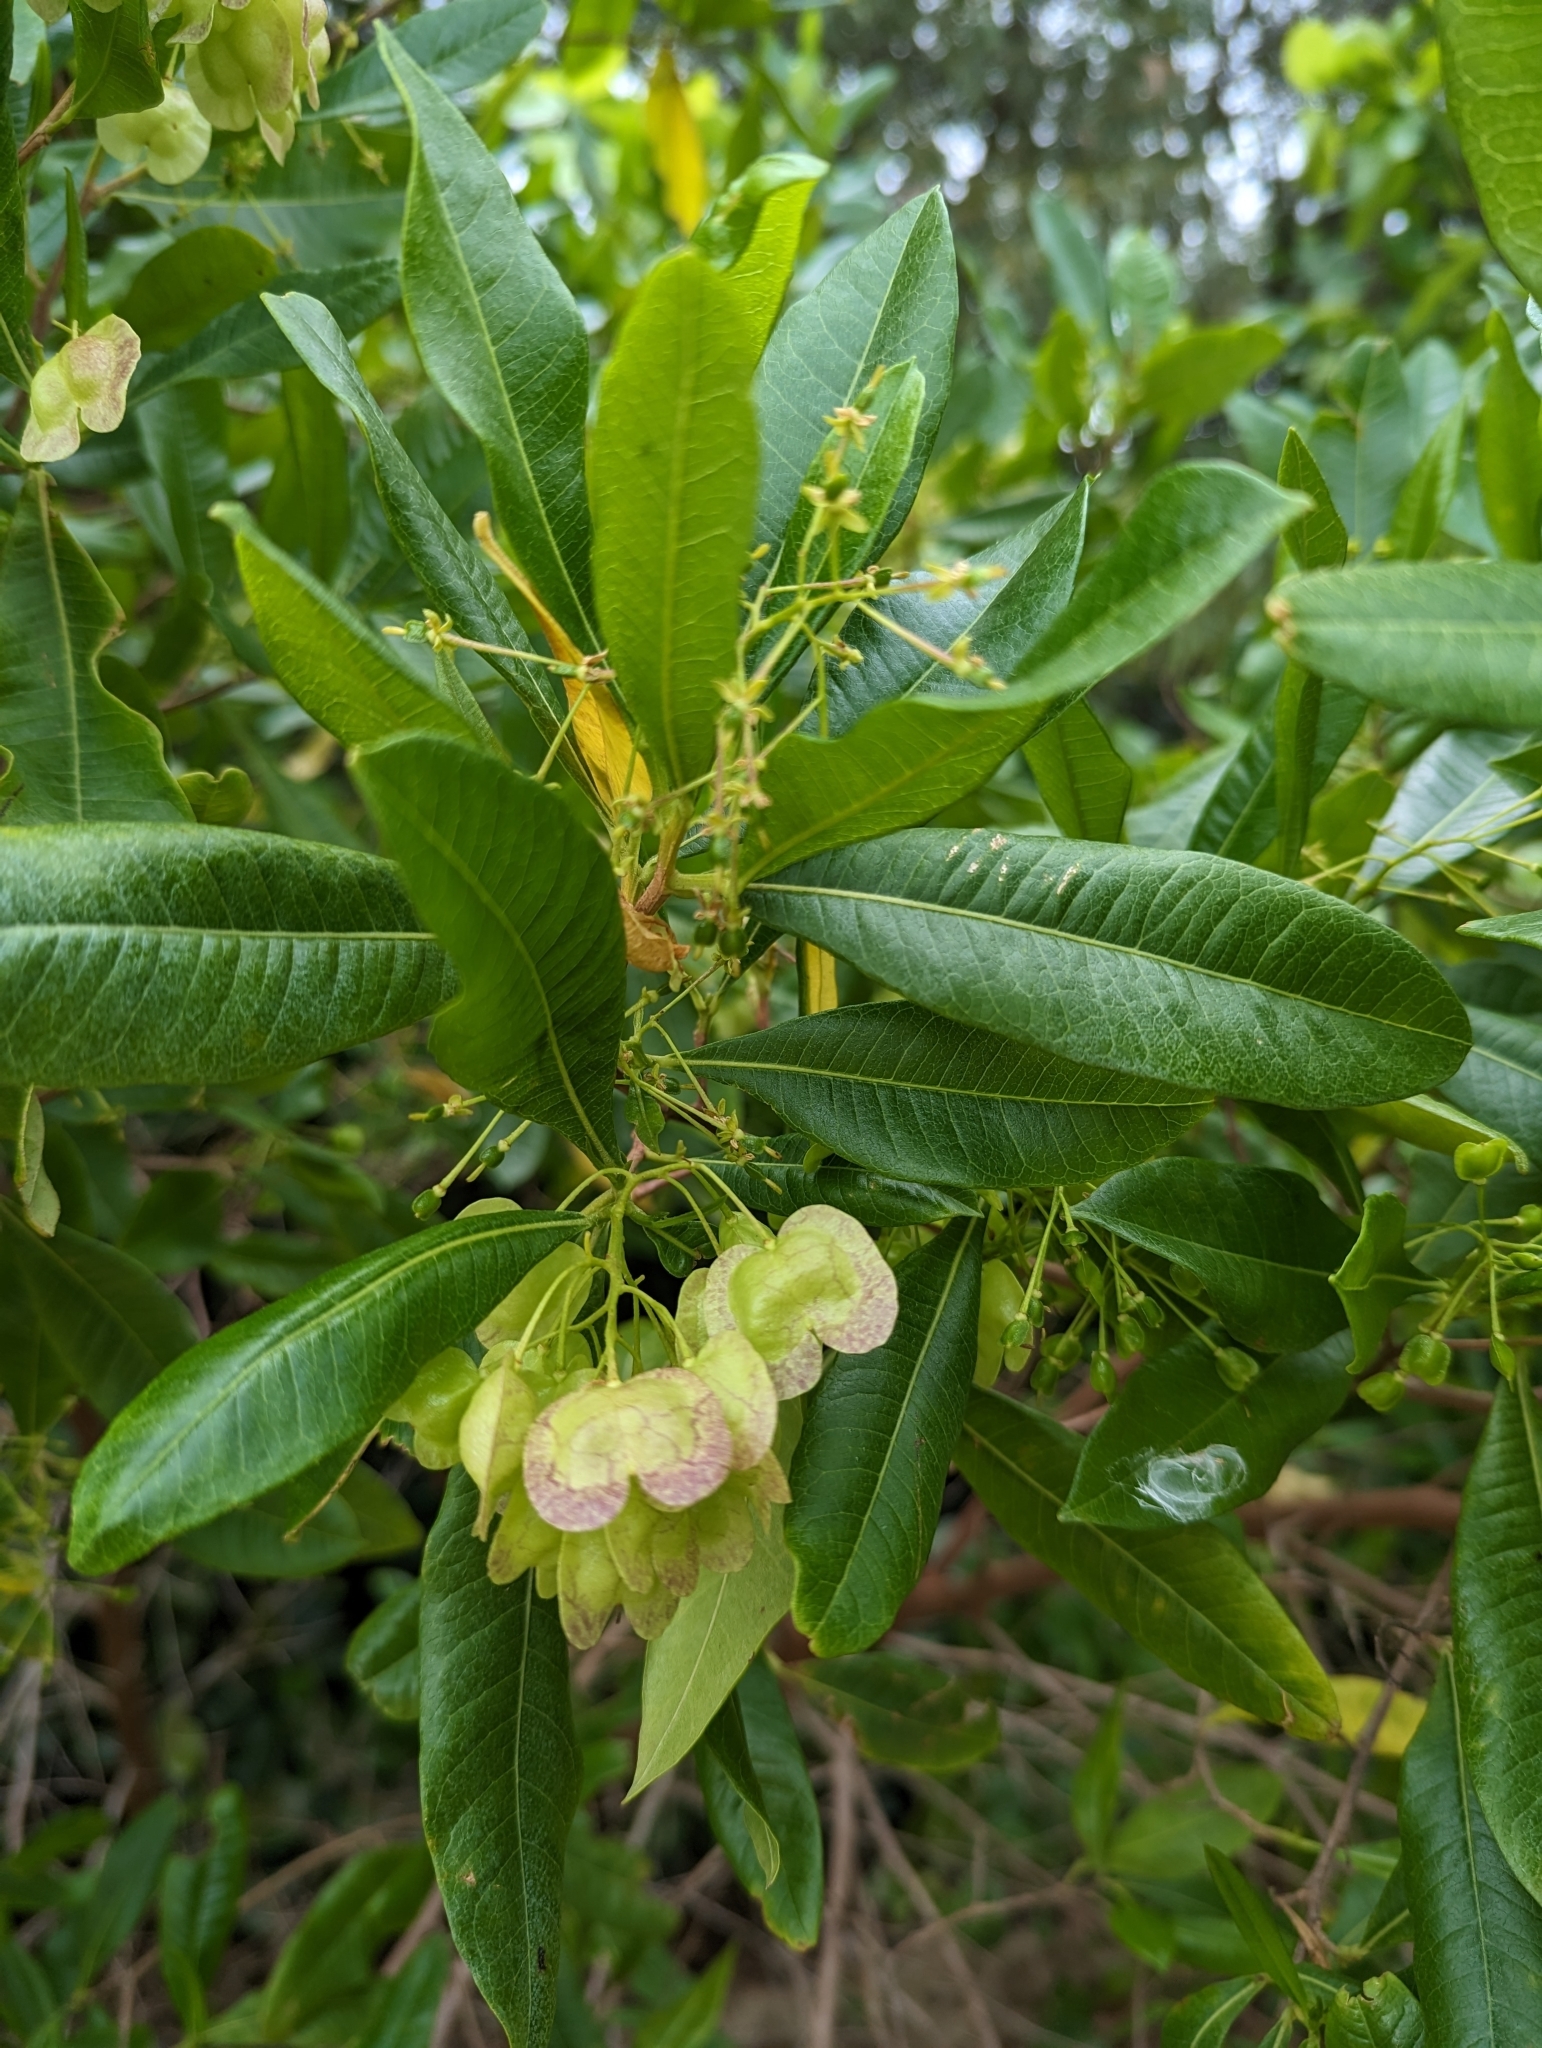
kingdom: Plantae
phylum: Tracheophyta
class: Magnoliopsida
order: Sapindales
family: Sapindaceae
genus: Dodonaea
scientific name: Dodonaea viscosa
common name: Hopbush
